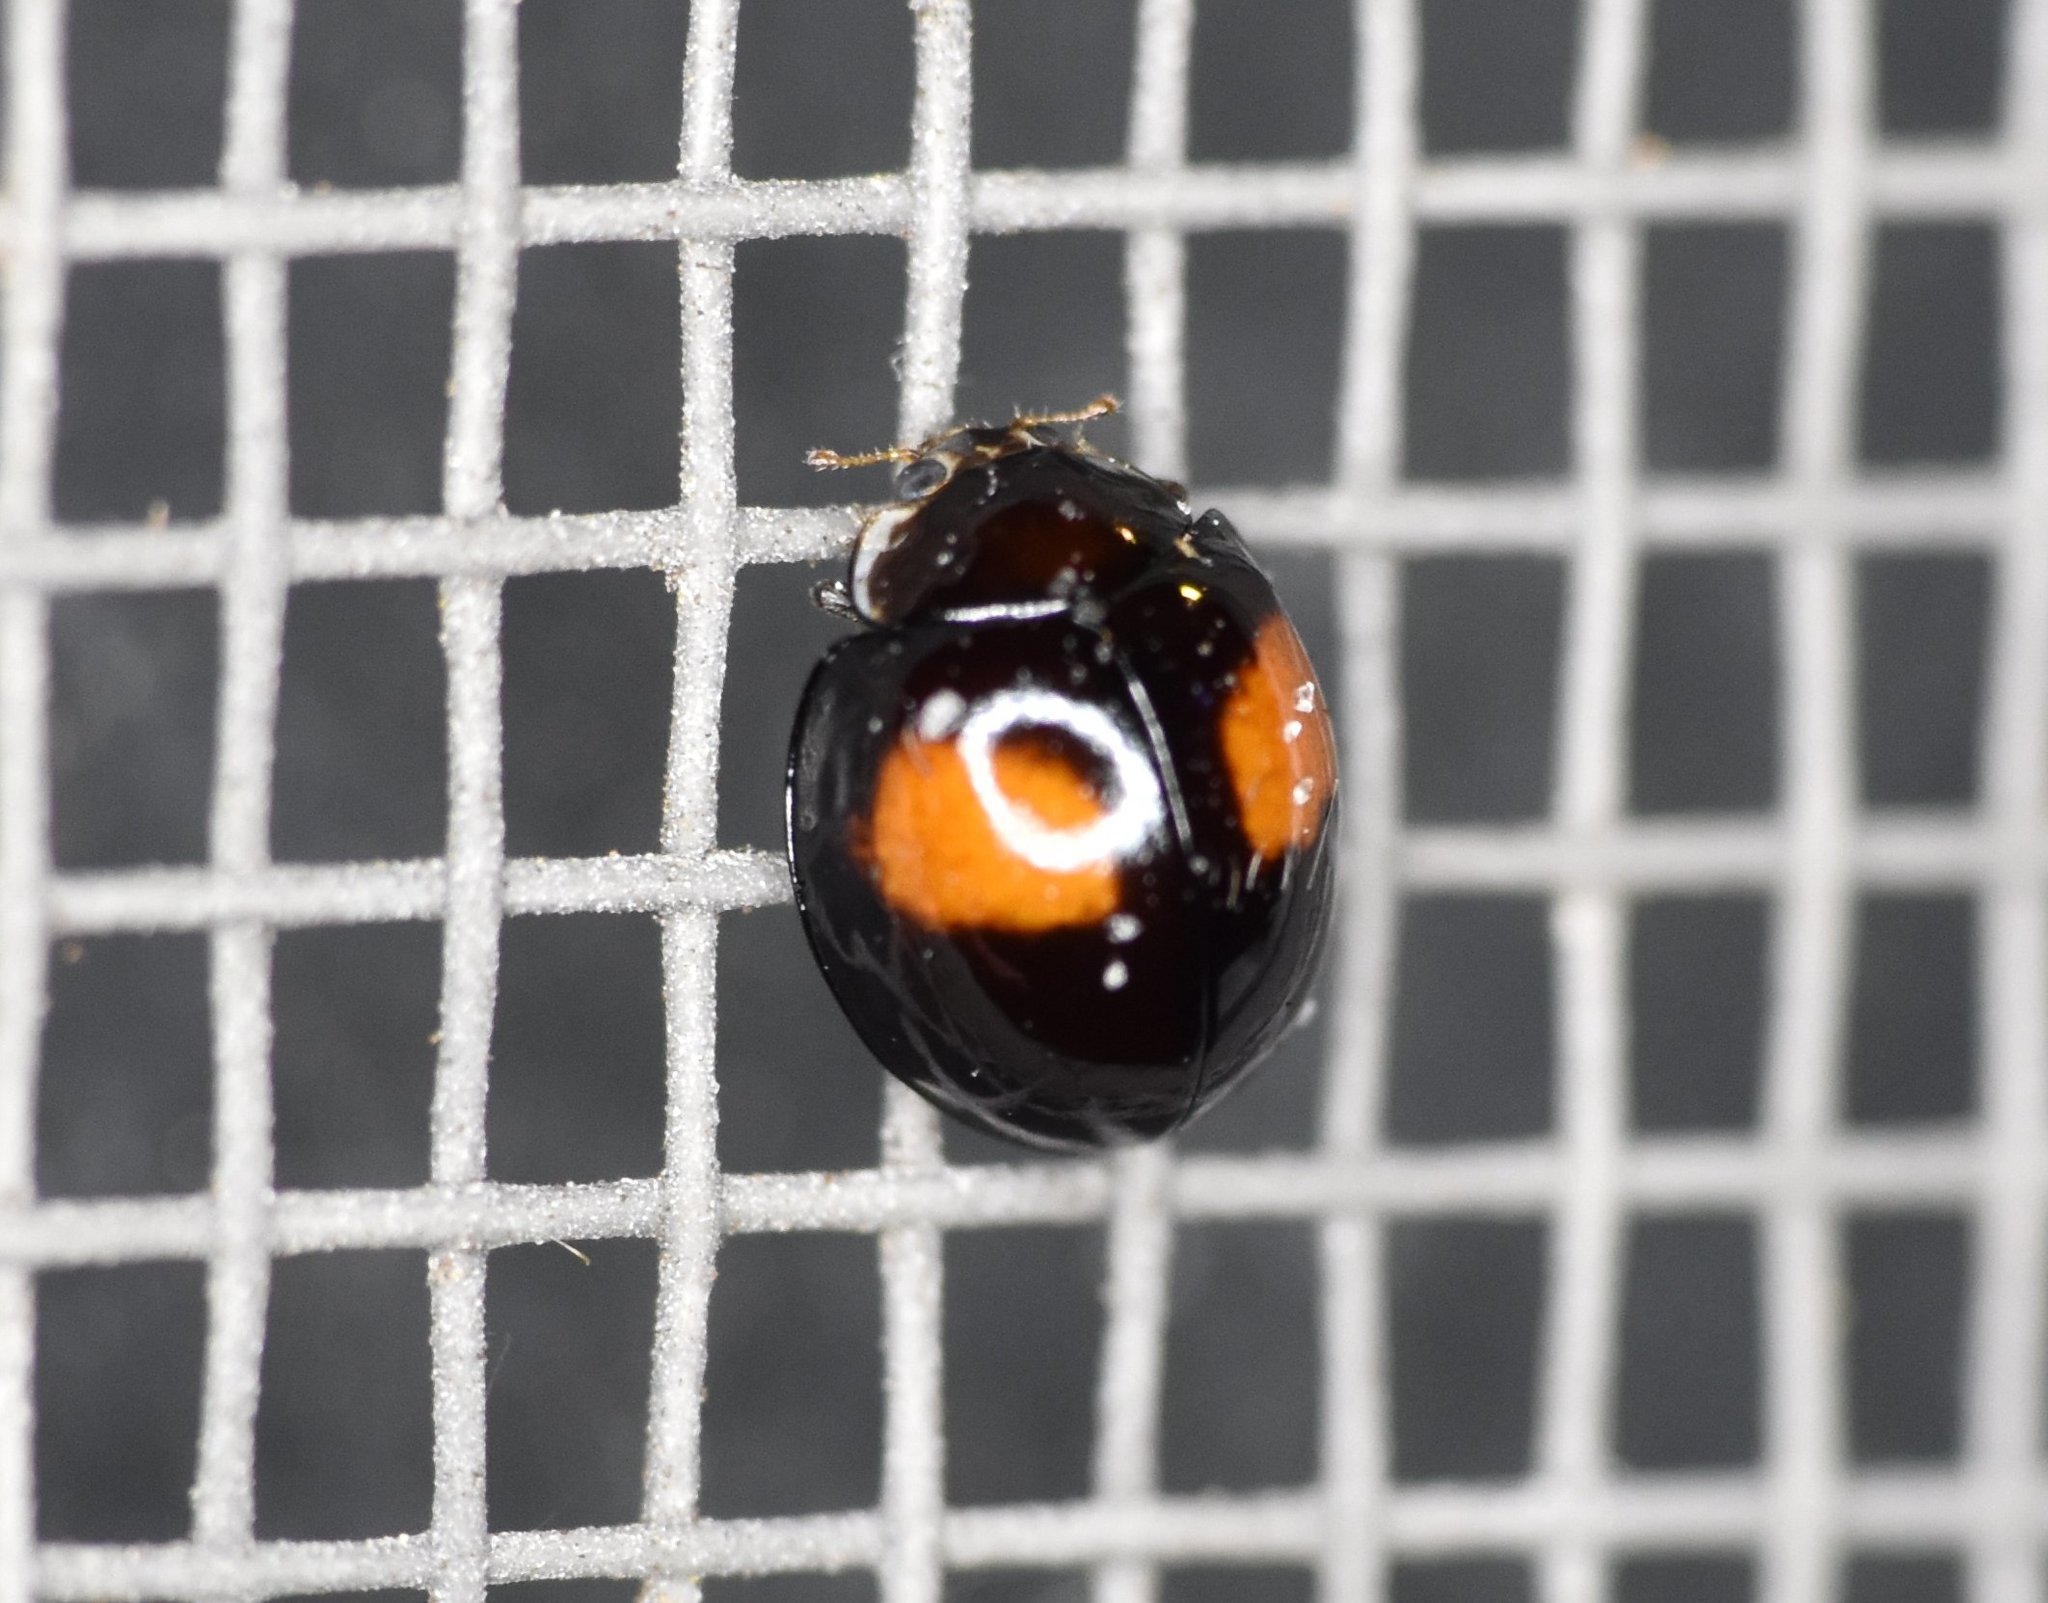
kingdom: Animalia
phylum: Arthropoda
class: Insecta
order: Coleoptera
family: Coccinellidae
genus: Olla
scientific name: Olla v-nigrum
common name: Ashy gray lady beetle
